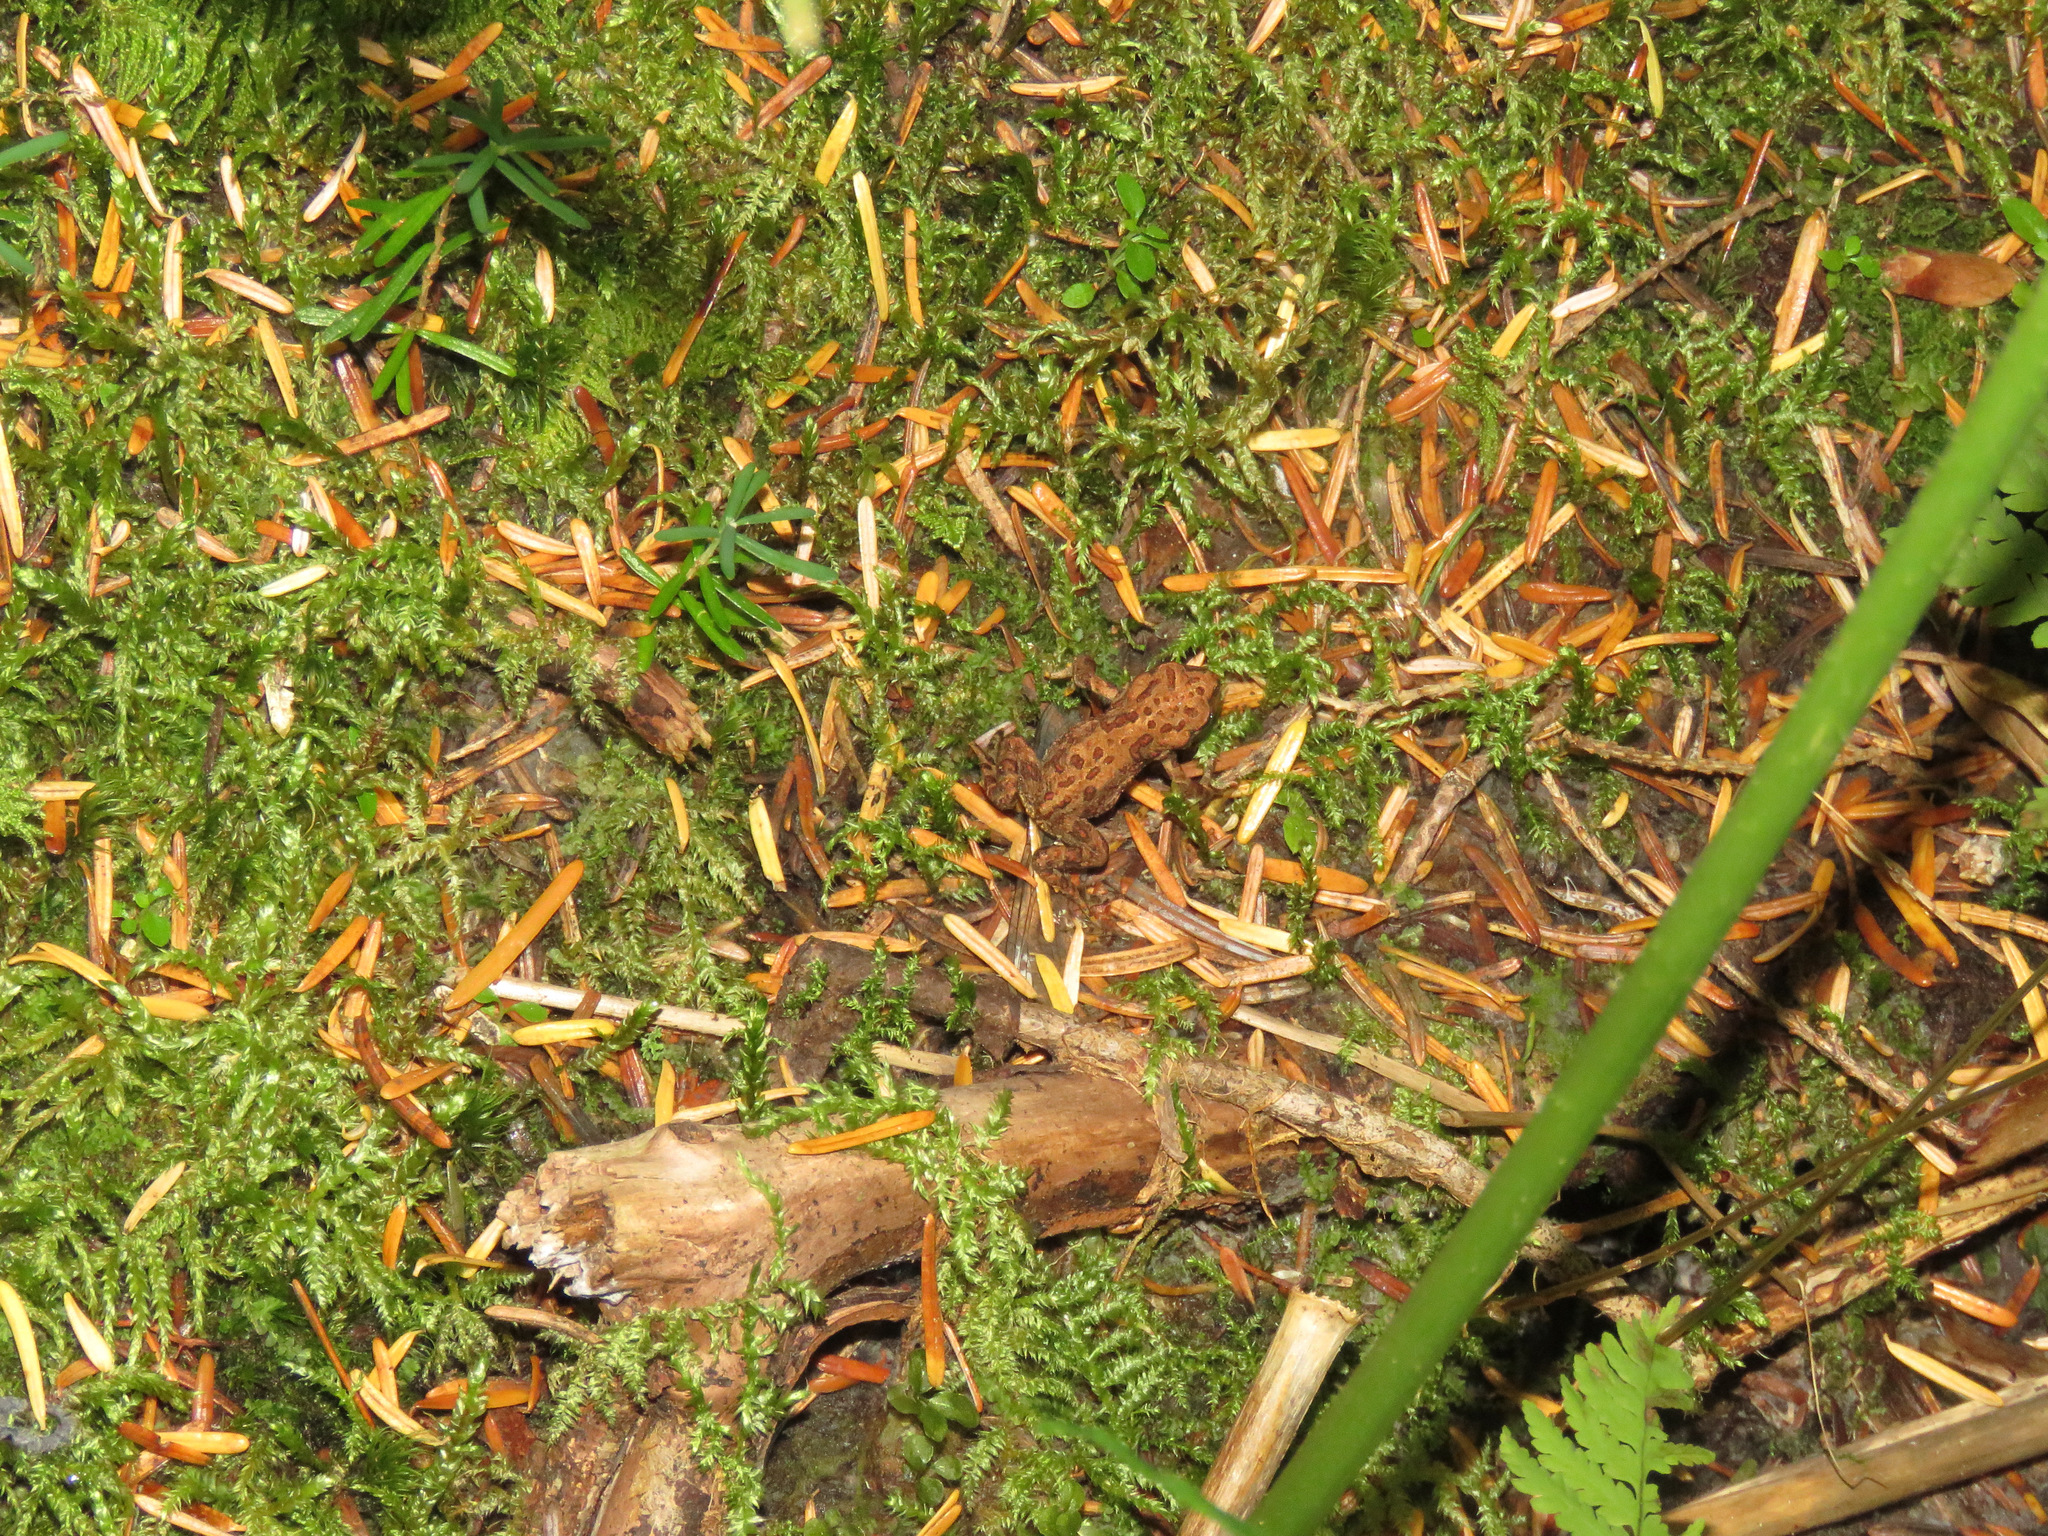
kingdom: Animalia
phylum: Chordata
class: Amphibia
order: Anura
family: Bufonidae
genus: Anaxyrus
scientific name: Anaxyrus boreas
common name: Western toad
